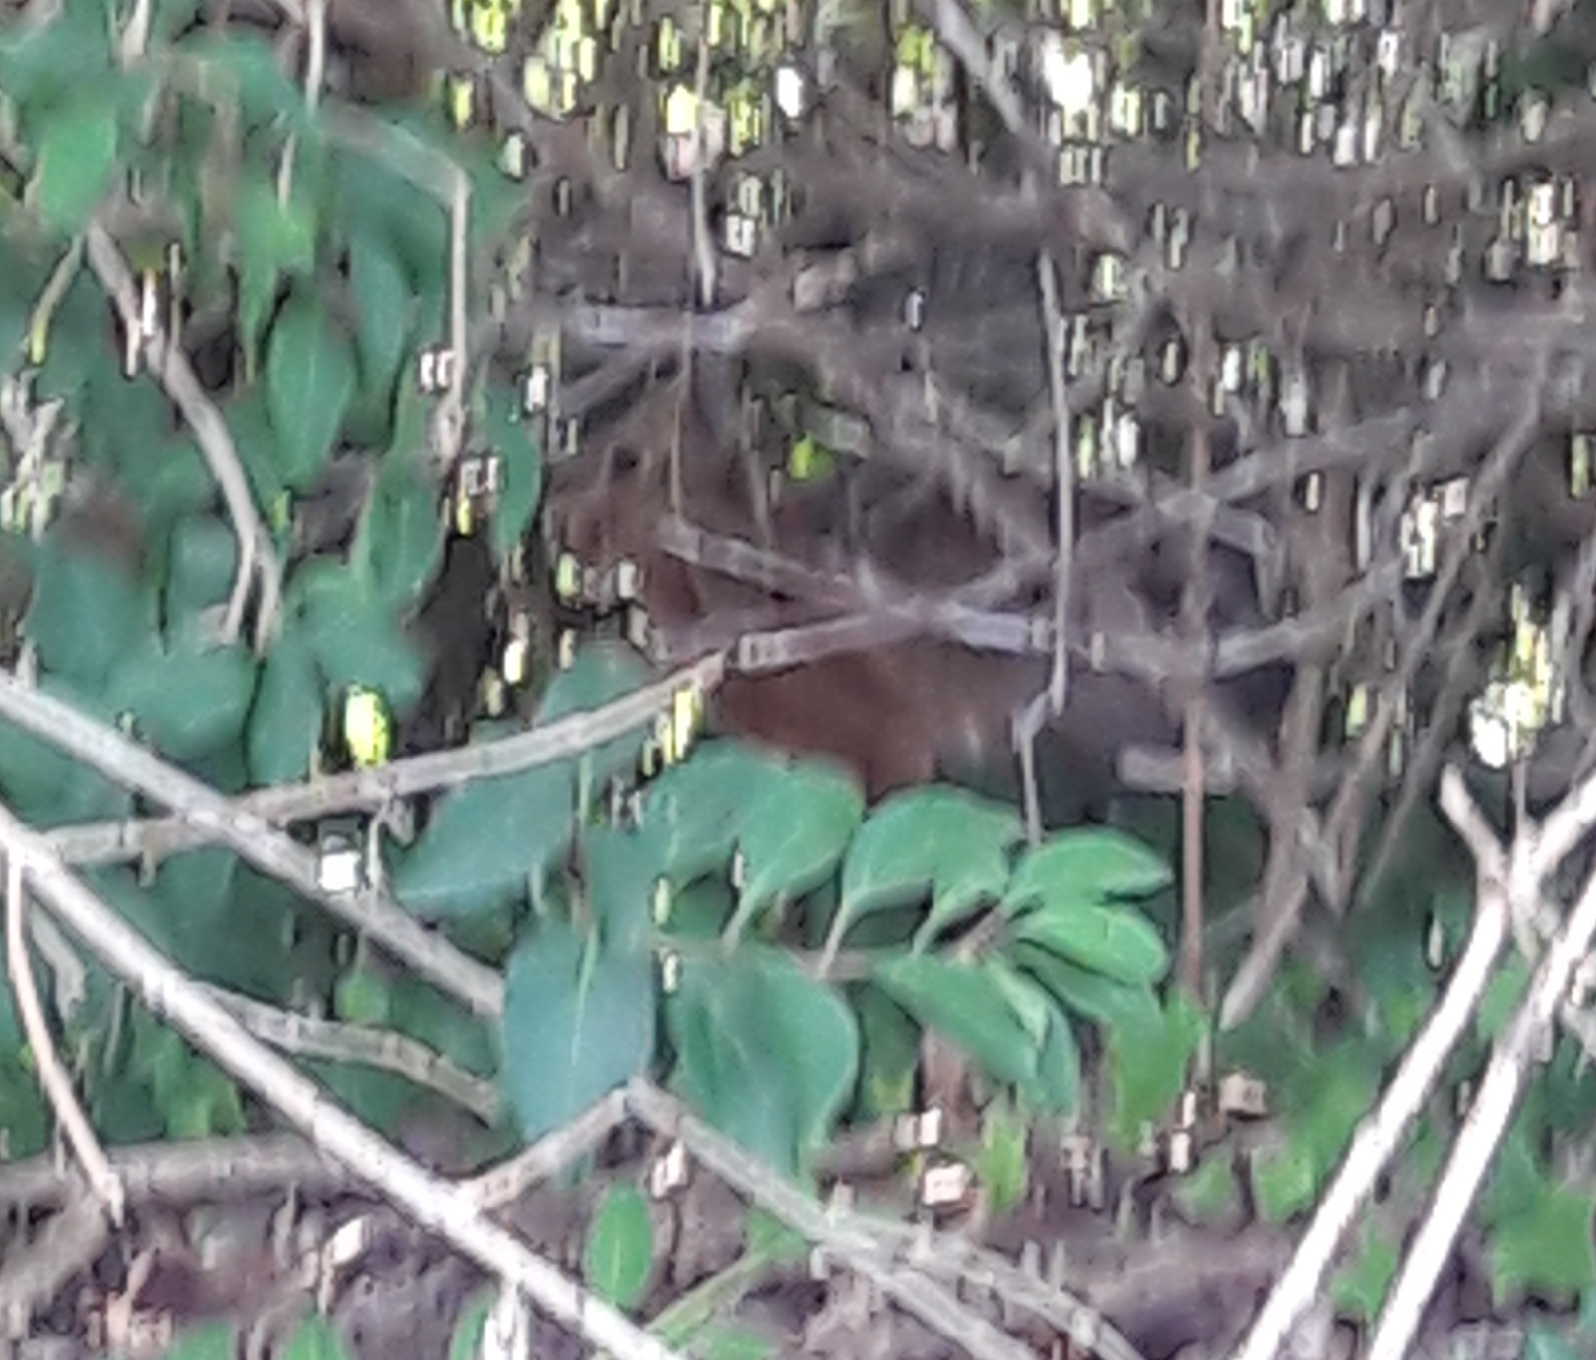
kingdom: Animalia
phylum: Chordata
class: Mammalia
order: Lagomorpha
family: Leporidae
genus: Lepus
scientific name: Lepus europaeus
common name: European hare
